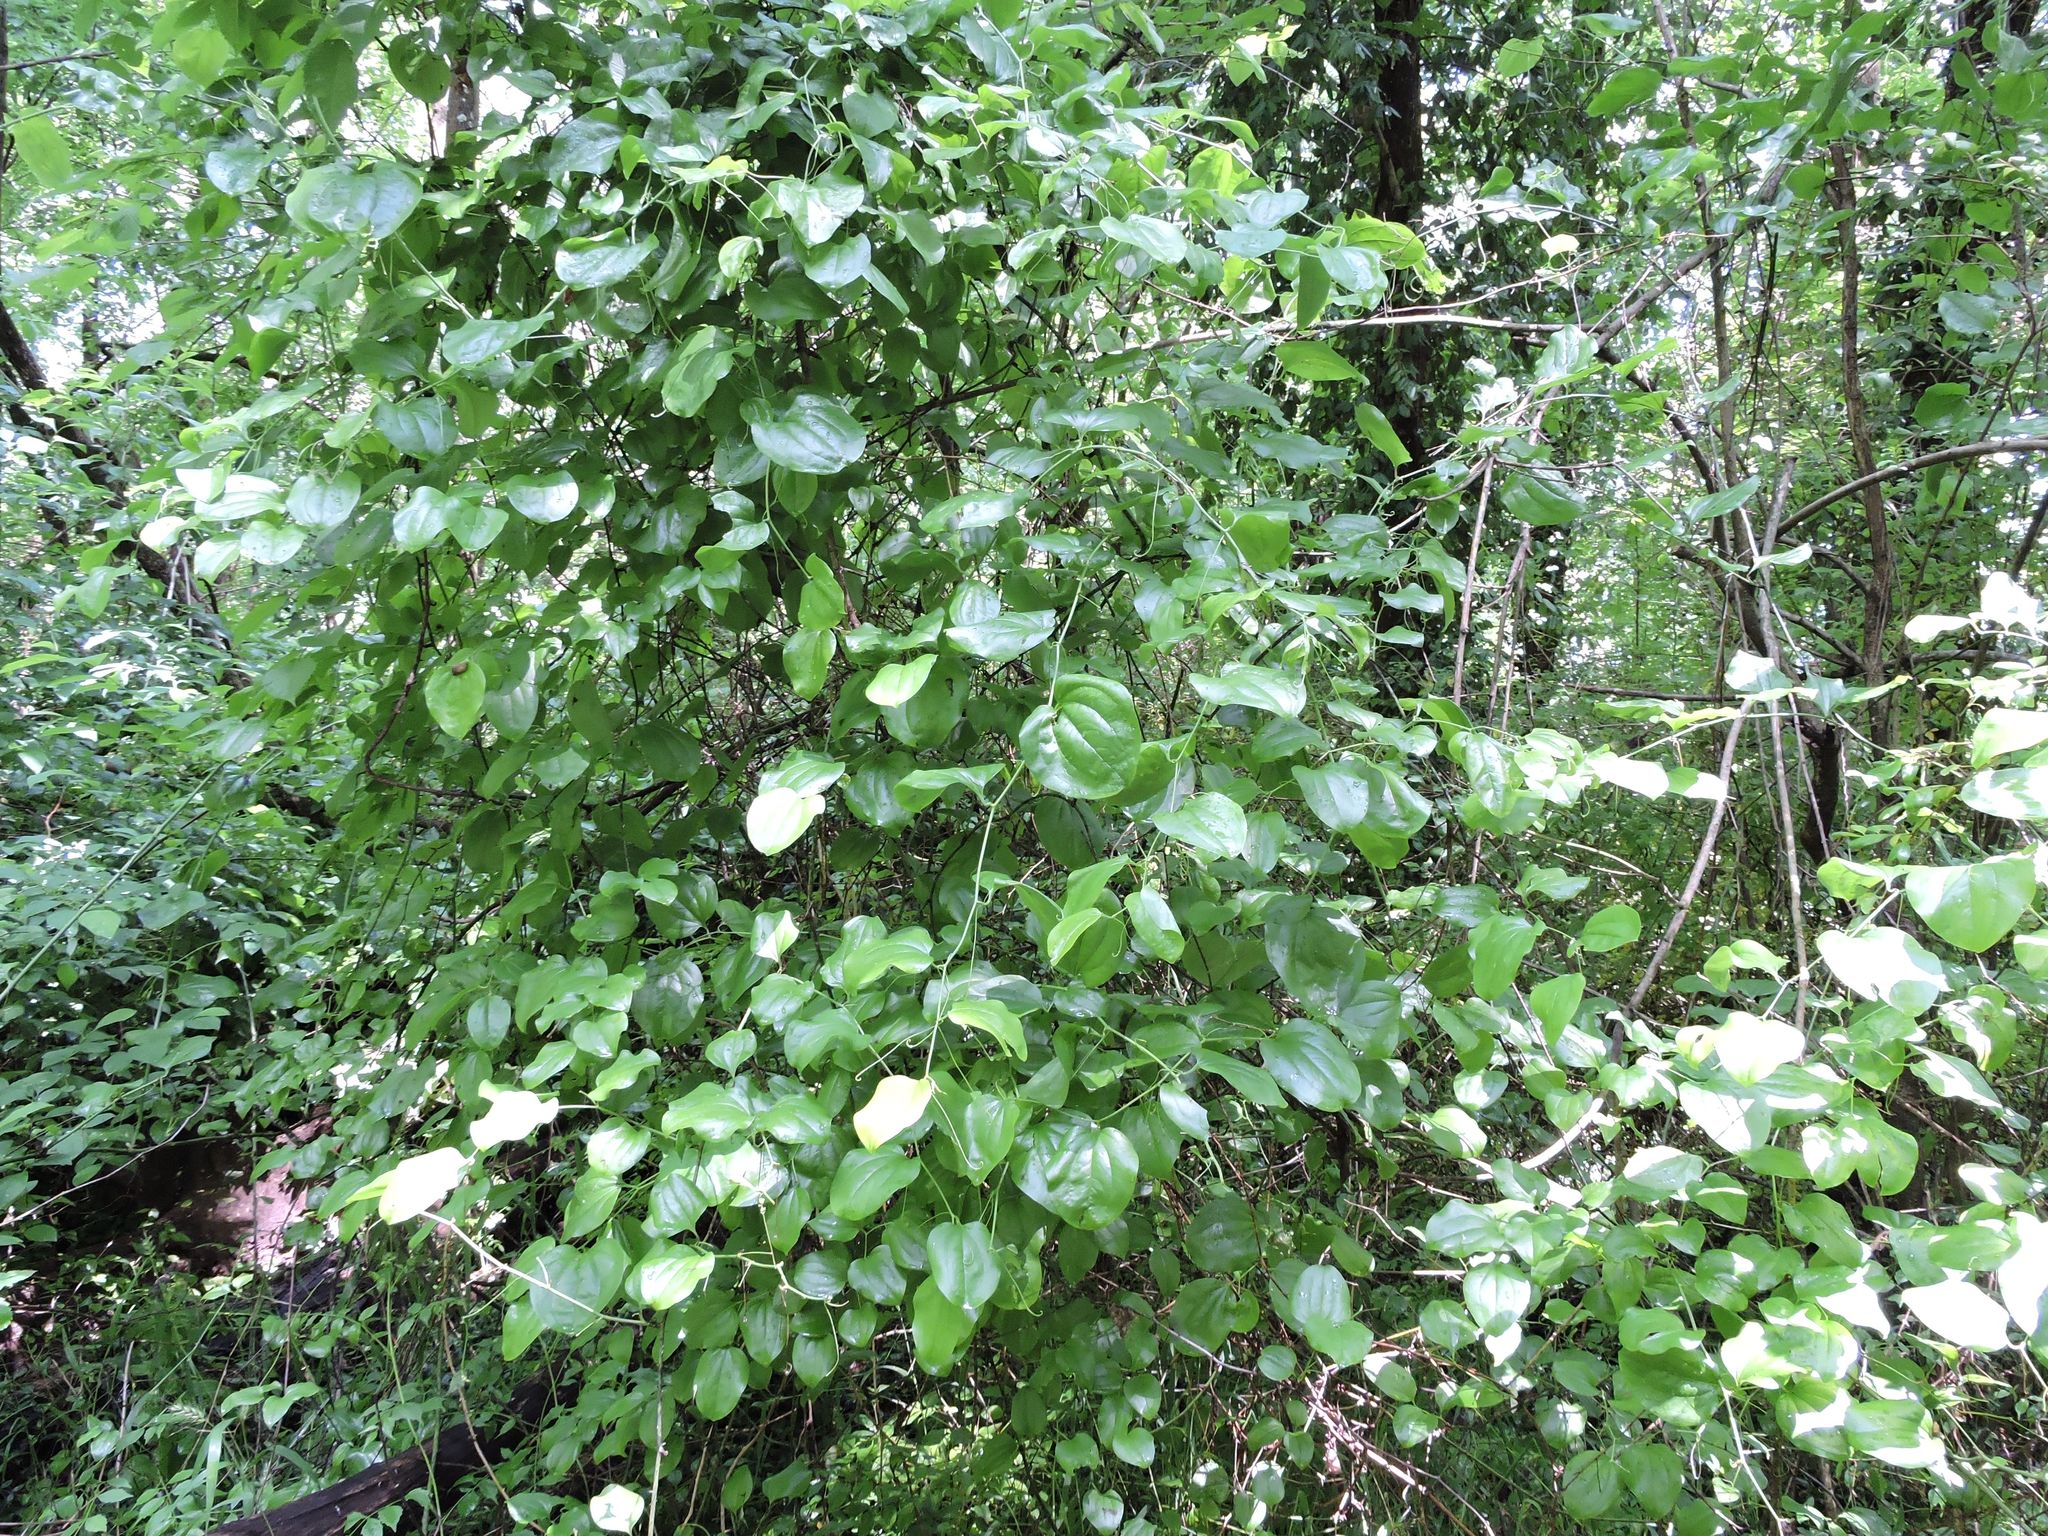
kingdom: Plantae
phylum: Tracheophyta
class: Liliopsida
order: Liliales
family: Smilacaceae
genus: Smilax
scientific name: Smilax rotundifolia
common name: Bullbriar
